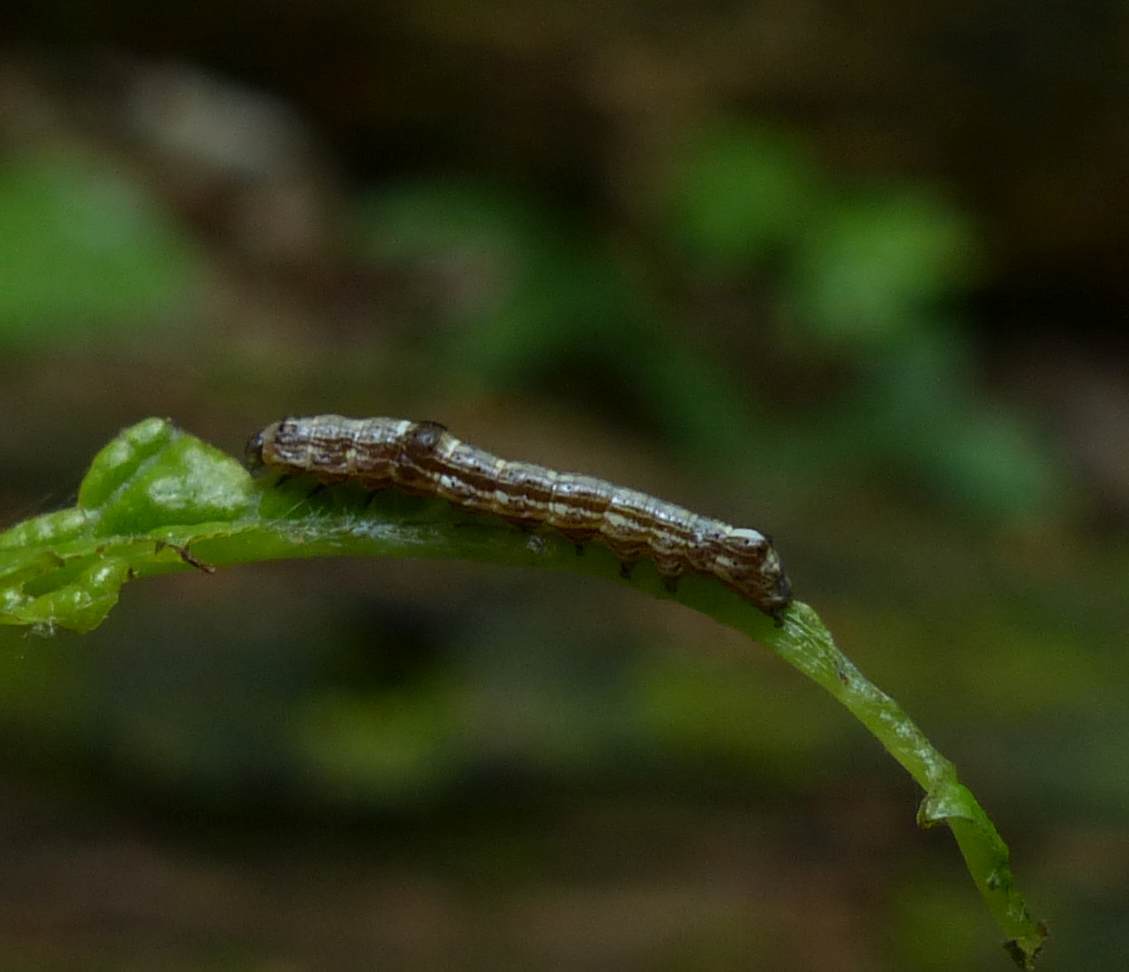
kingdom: Animalia
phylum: Arthropoda
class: Insecta
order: Lepidoptera
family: Noctuidae
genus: Sympistis
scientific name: Sympistis chionanthi
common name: Fringe-tree sallow
